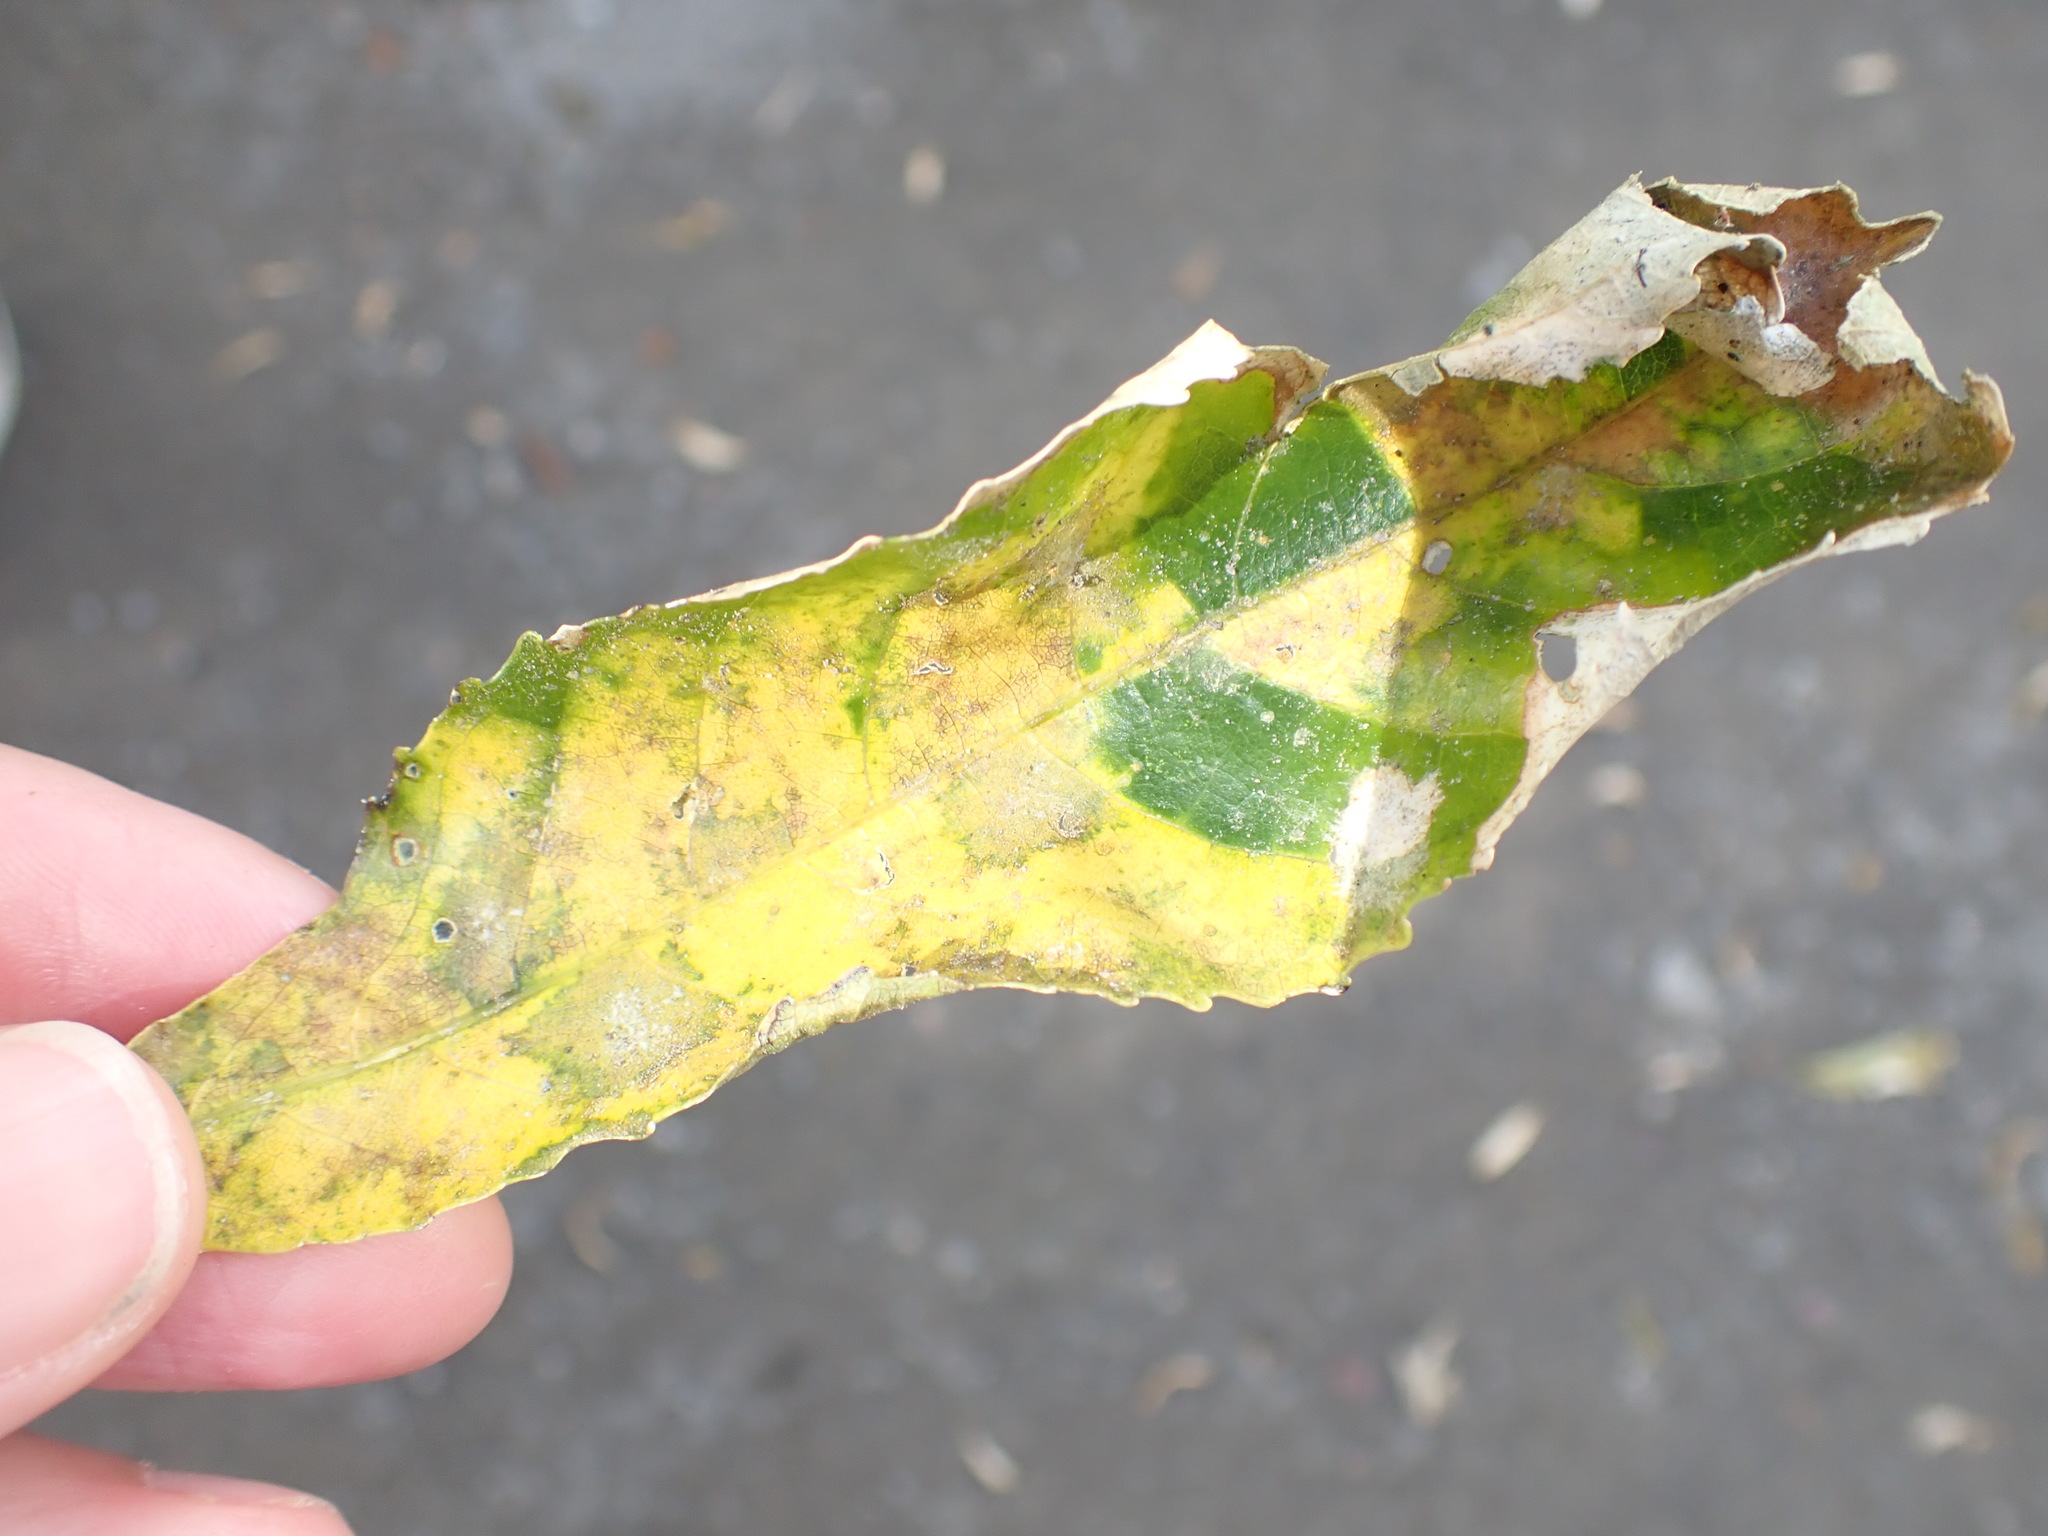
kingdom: Plantae
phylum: Tracheophyta
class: Magnoliopsida
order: Myrtales
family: Onagraceae
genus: Fuchsia
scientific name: Fuchsia excorticata
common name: Tree fuchsia
